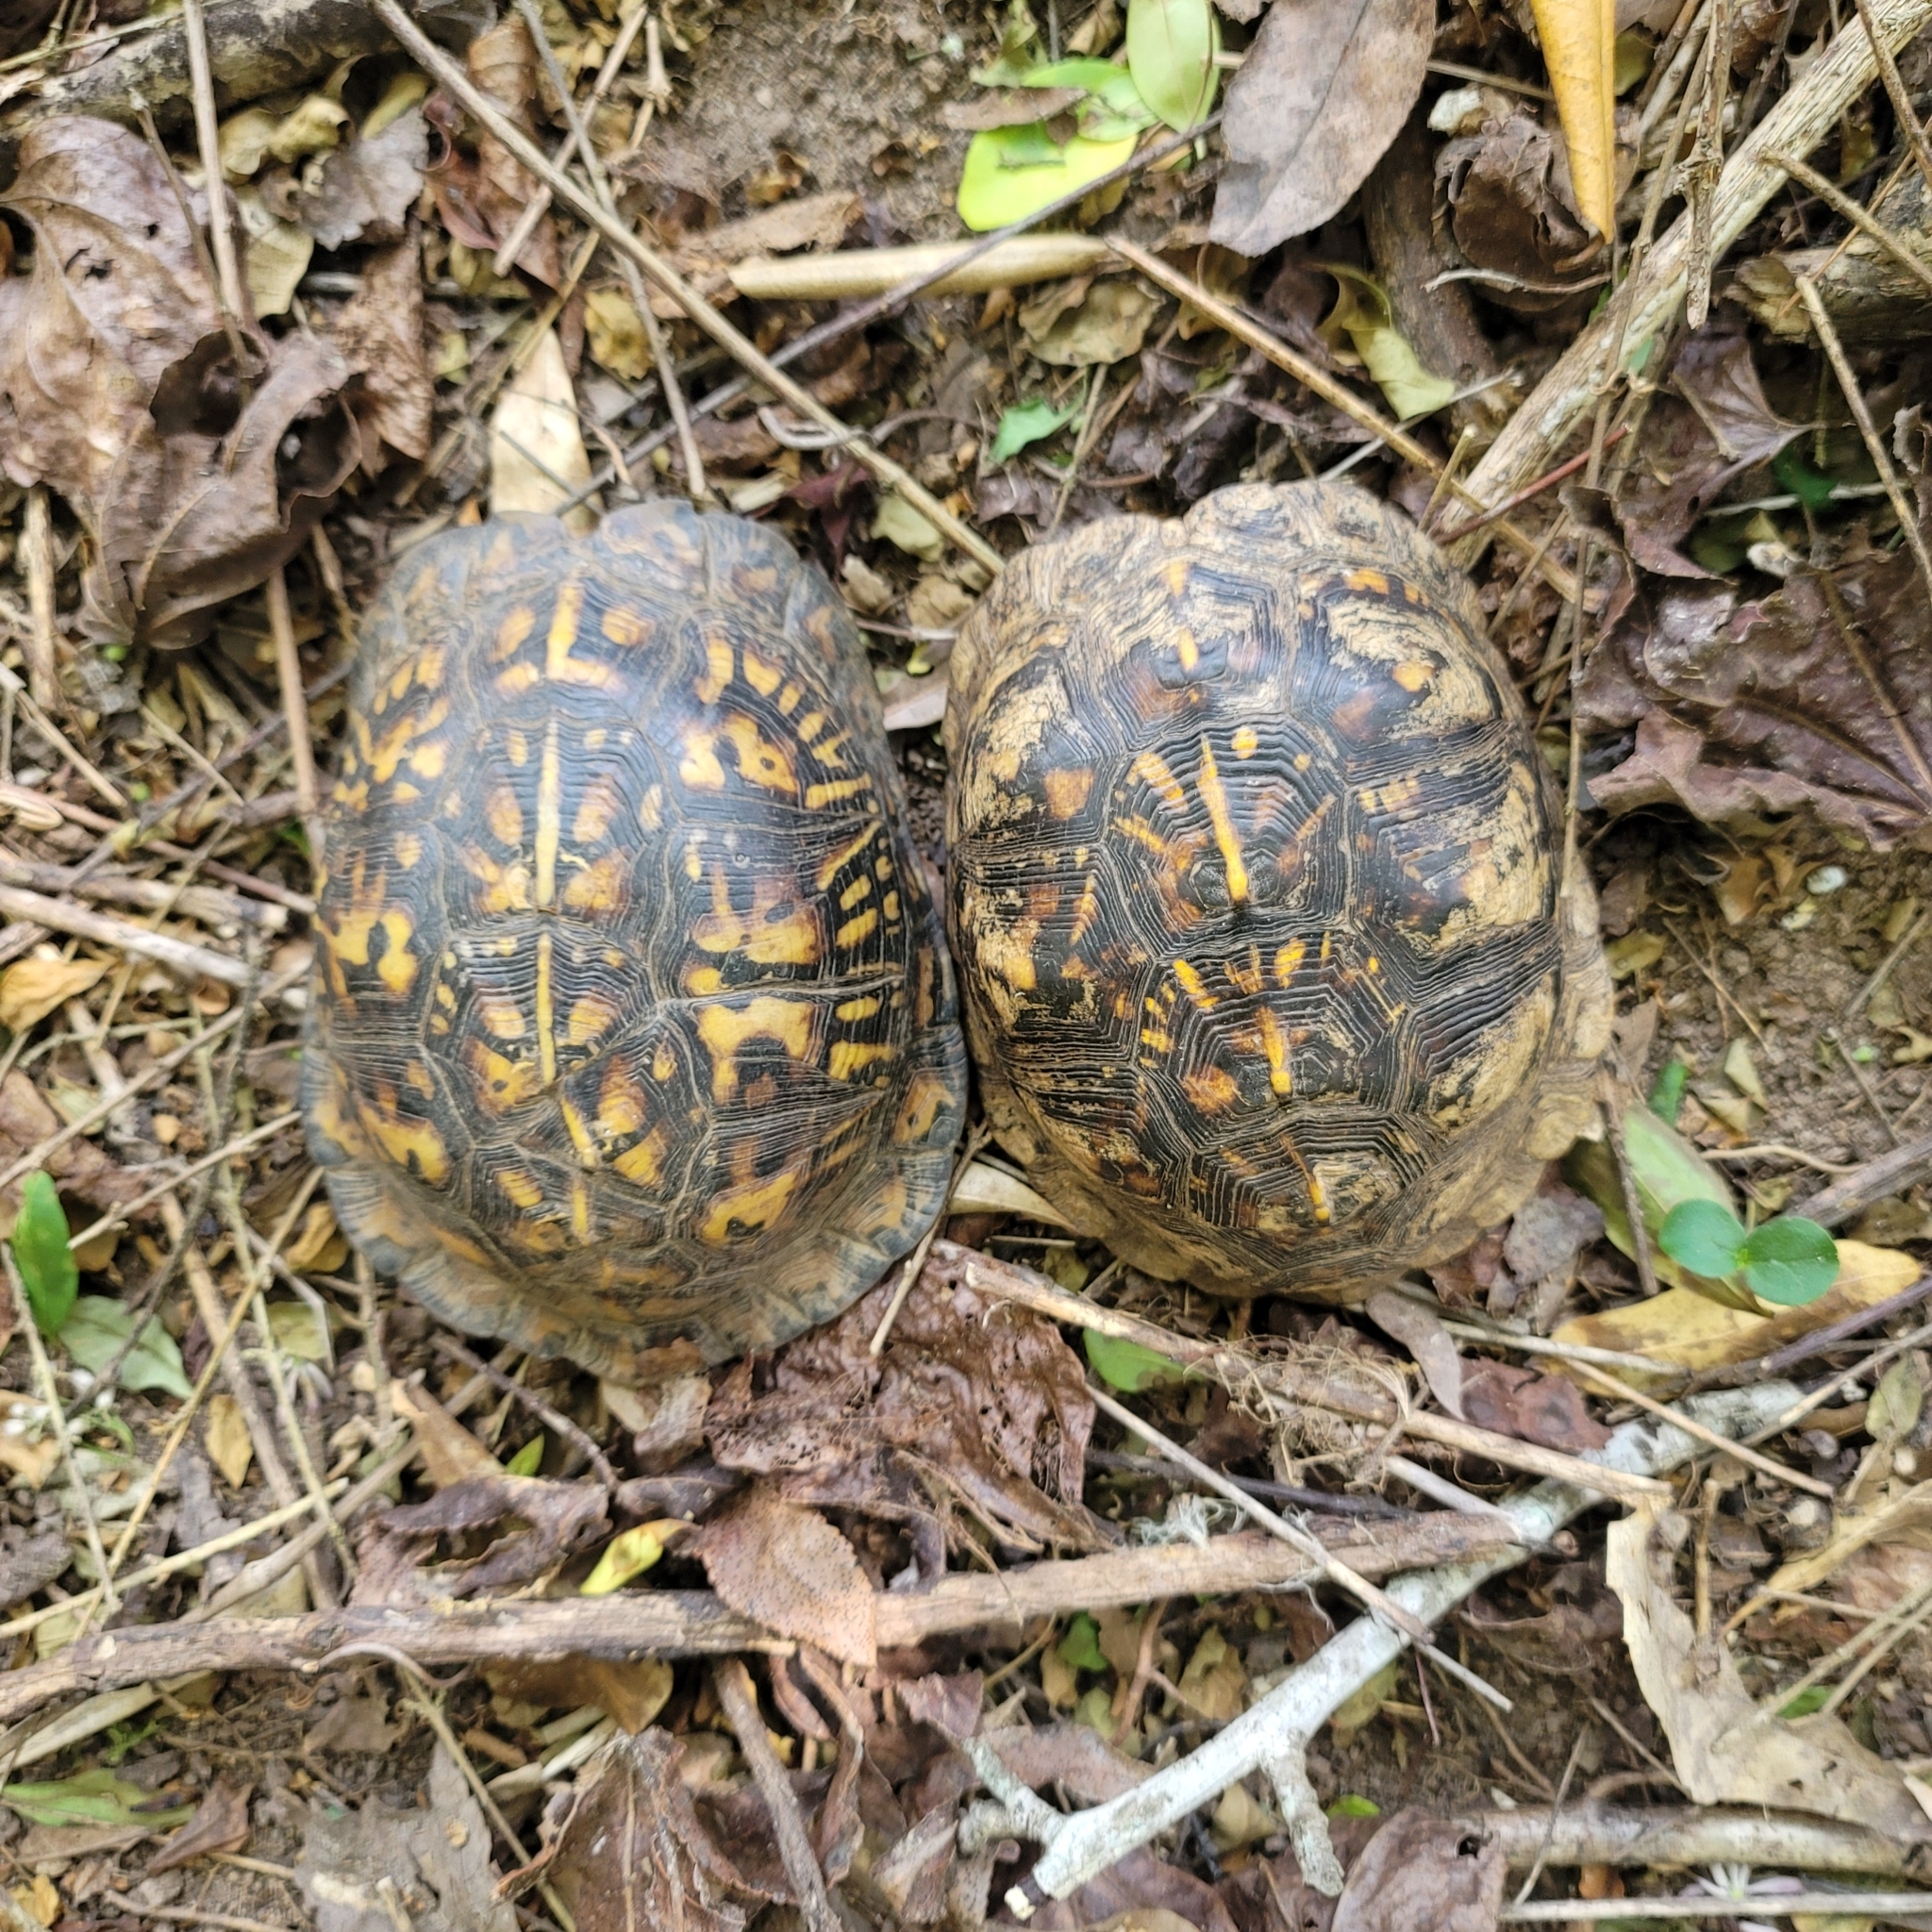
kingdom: Animalia
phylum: Chordata
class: Testudines
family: Emydidae
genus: Terrapene
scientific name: Terrapene carolina
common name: Common box turtle
